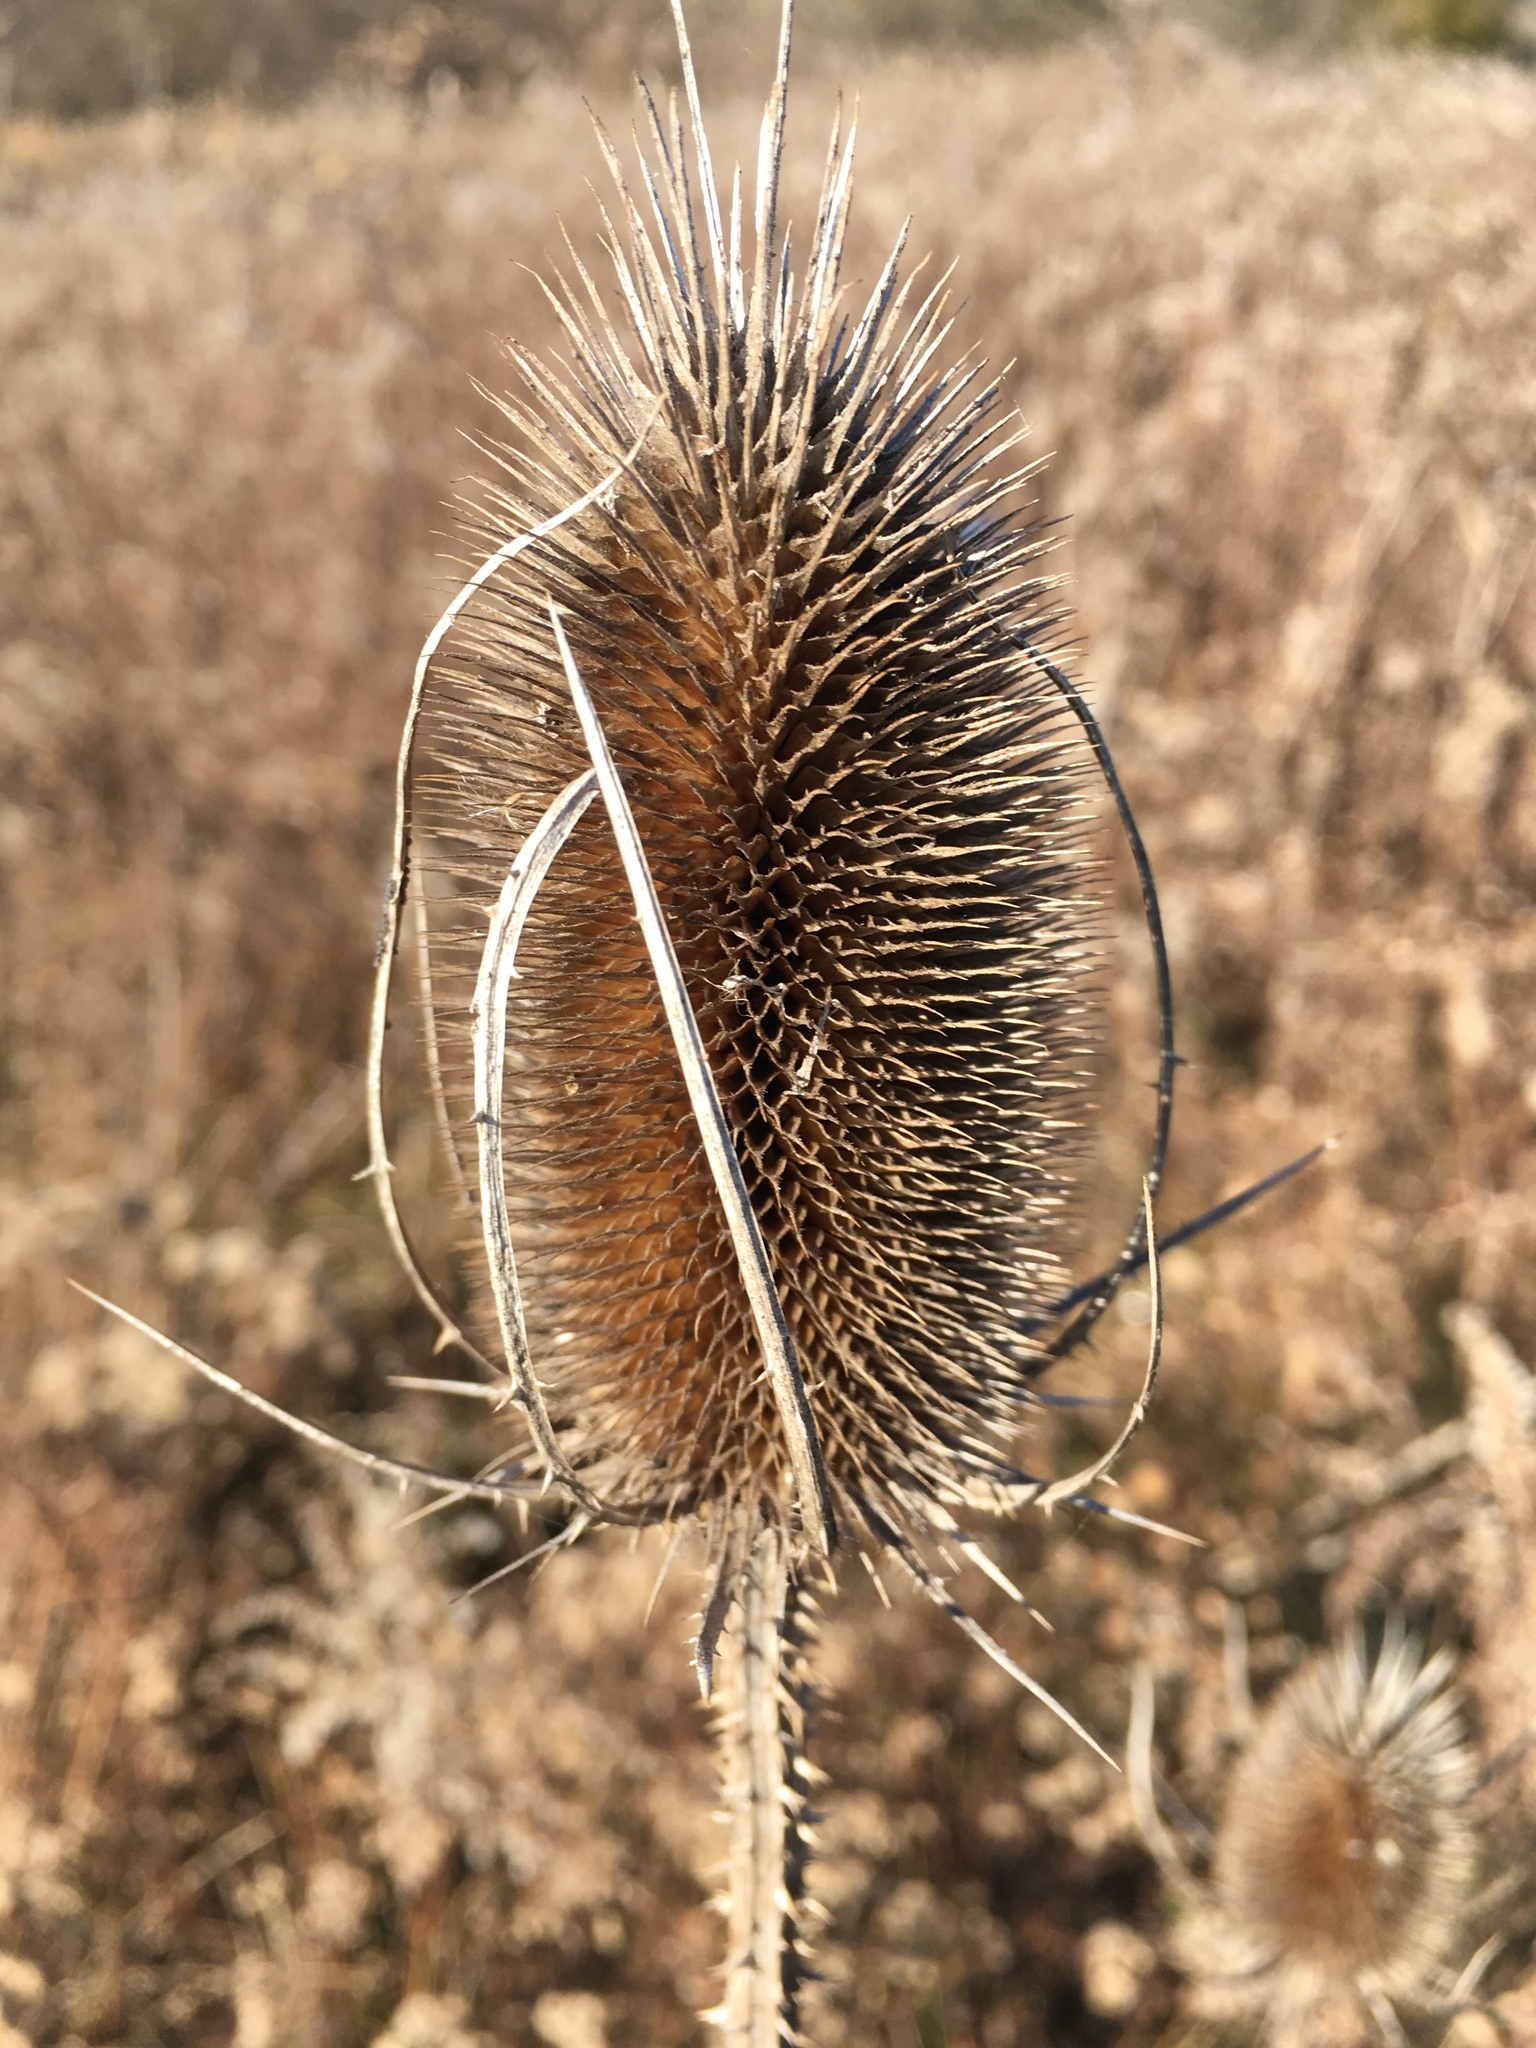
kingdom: Plantae
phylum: Tracheophyta
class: Magnoliopsida
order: Dipsacales
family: Caprifoliaceae
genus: Dipsacus
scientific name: Dipsacus fullonum
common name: Teasel
